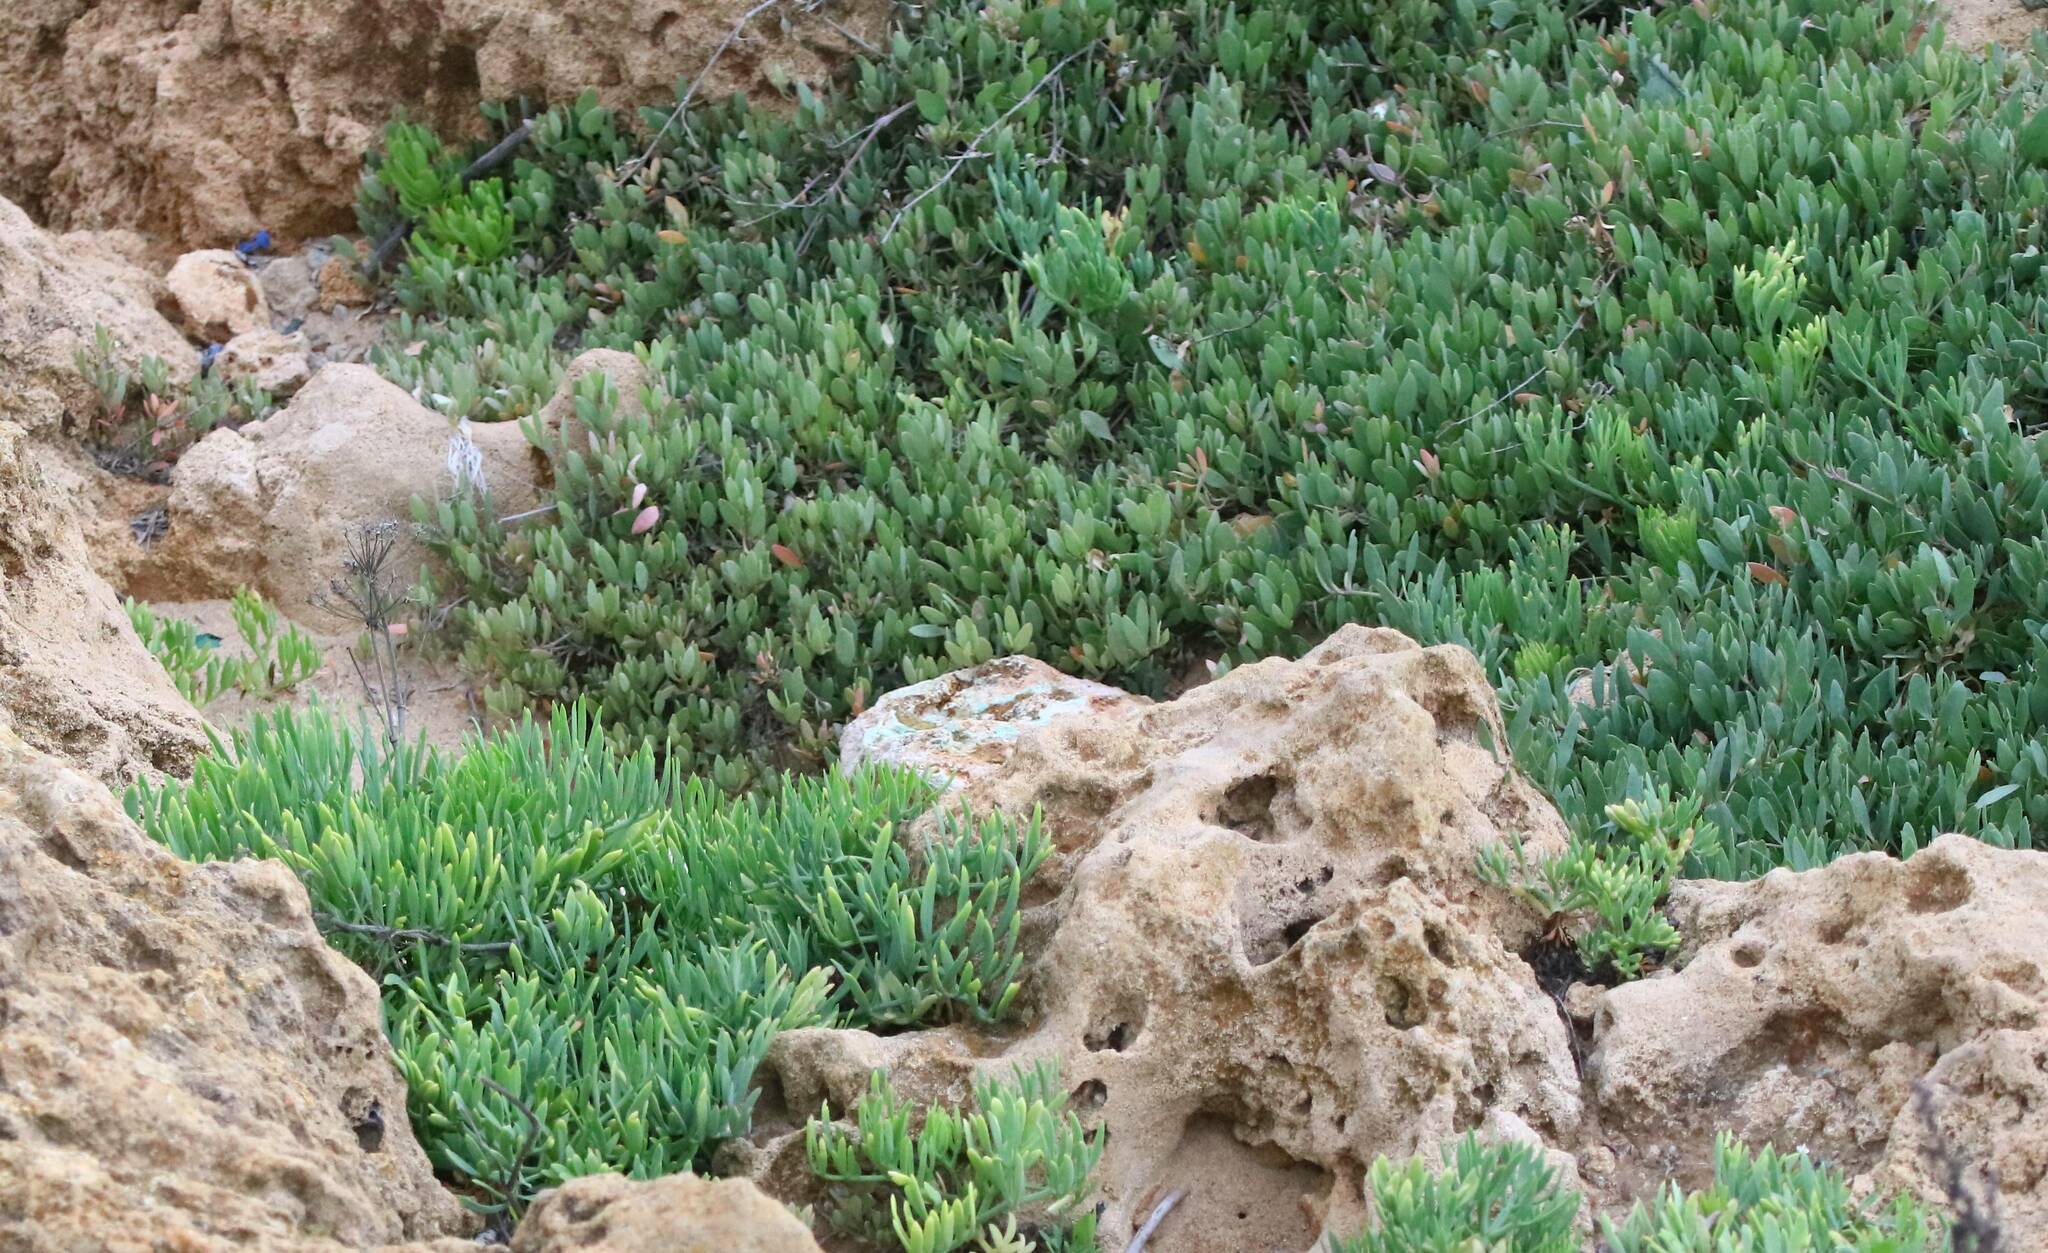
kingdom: Plantae
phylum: Tracheophyta
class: Magnoliopsida
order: Apiales
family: Apiaceae
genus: Crithmum
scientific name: Crithmum maritimum
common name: Rock samphire
